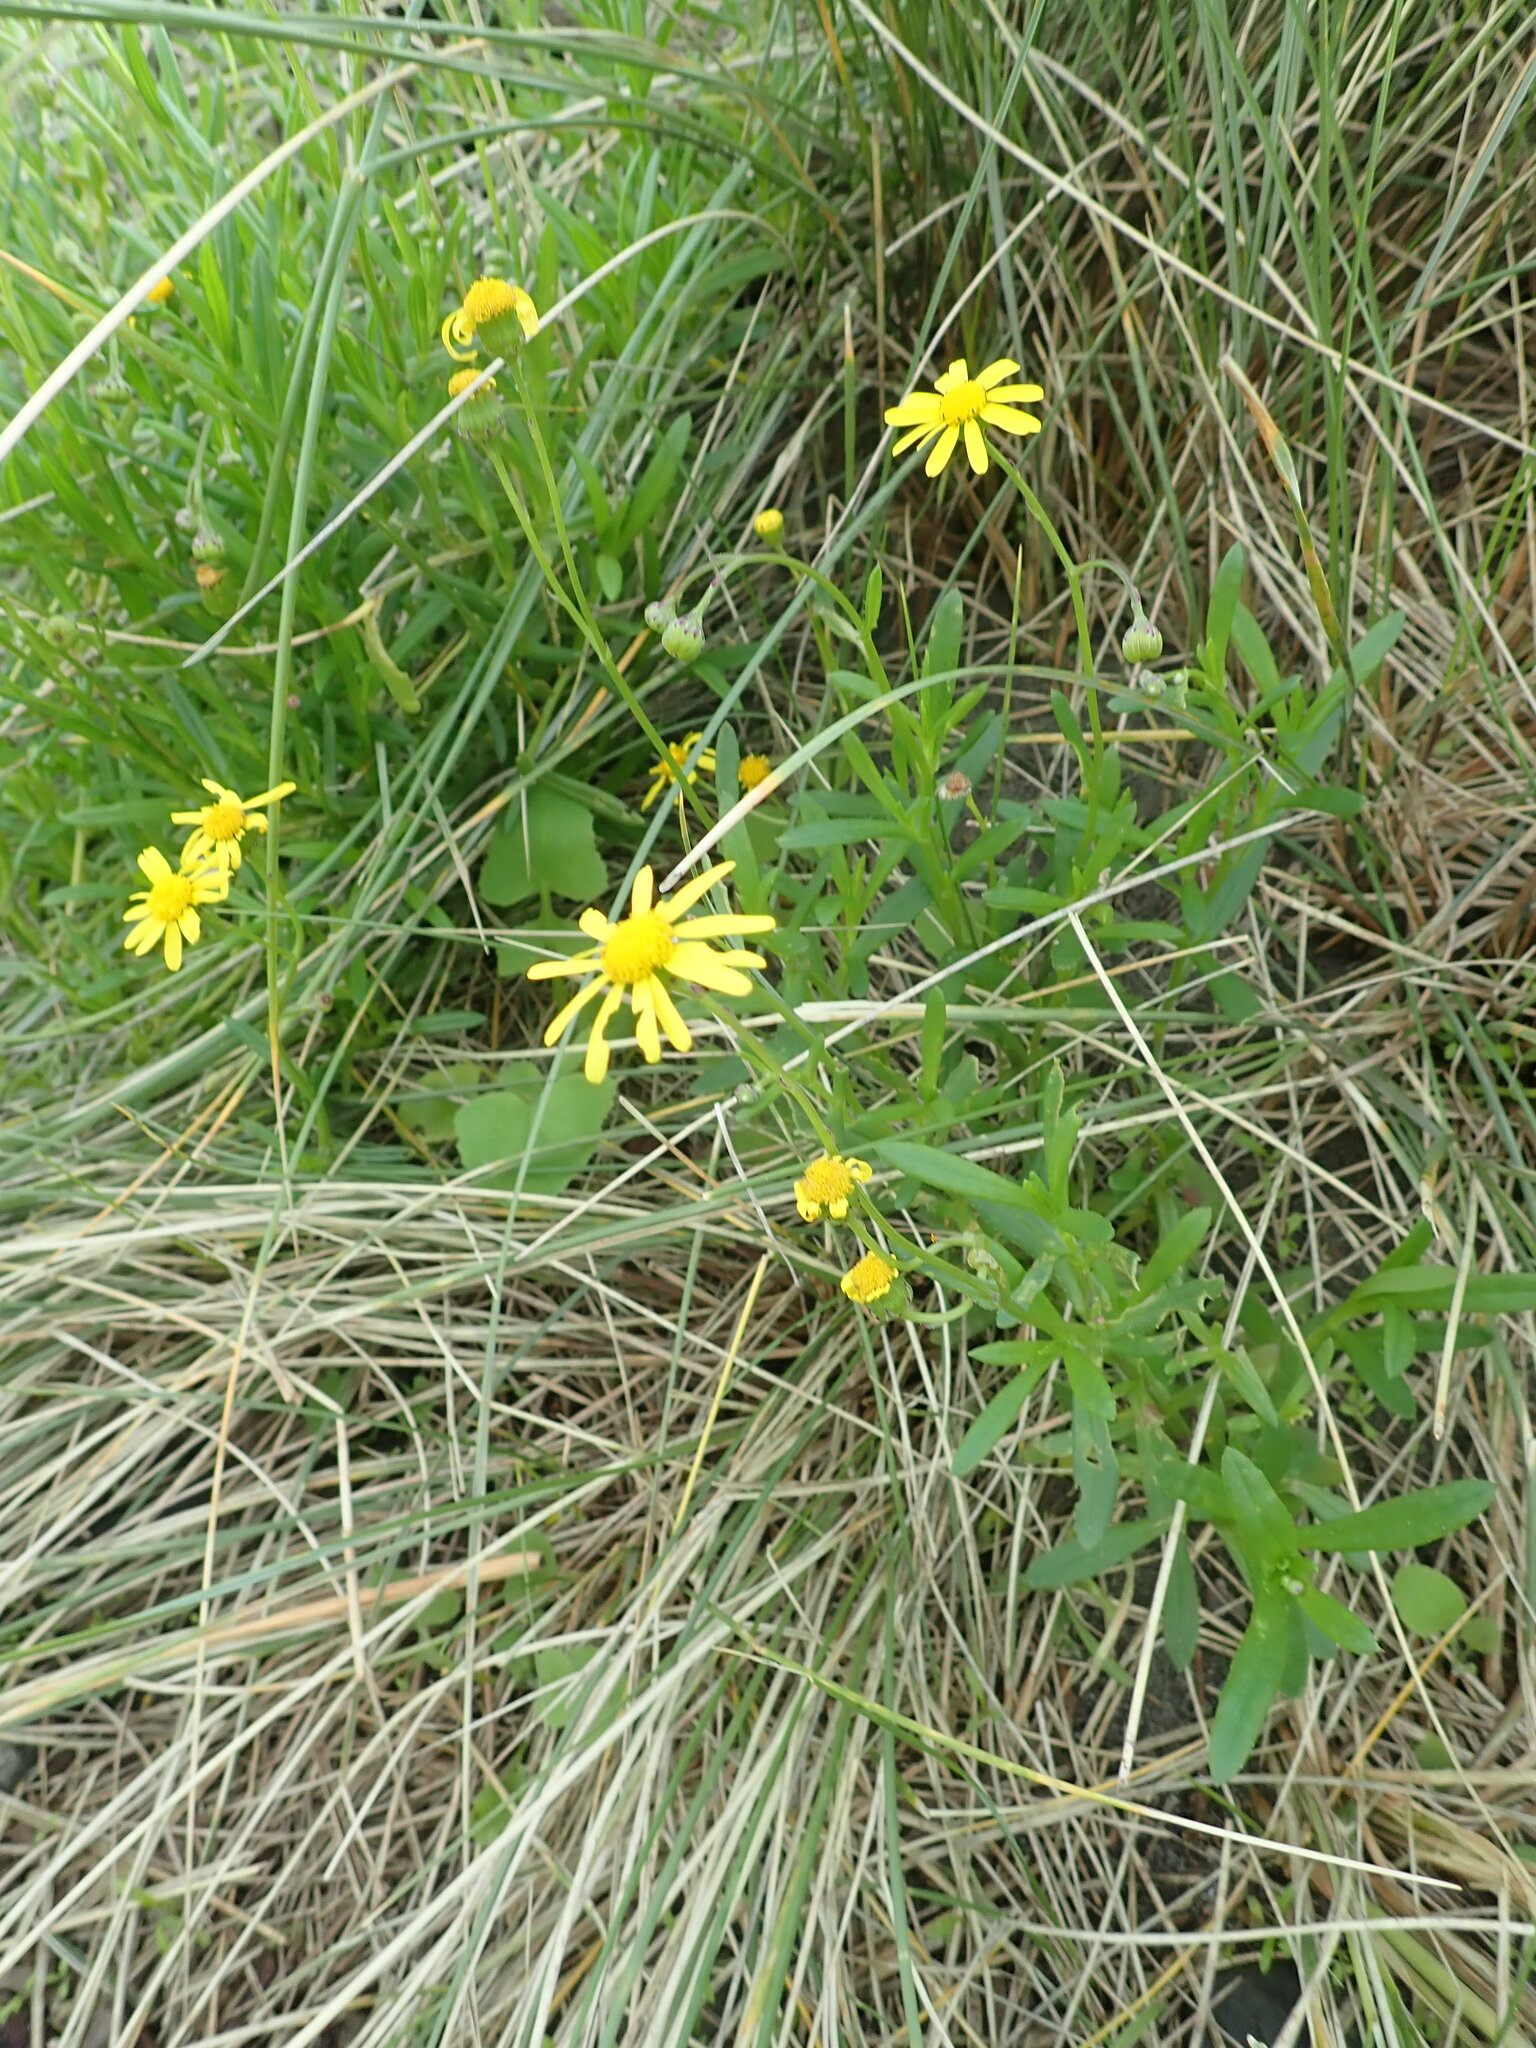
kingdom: Plantae
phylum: Tracheophyta
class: Magnoliopsida
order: Asterales
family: Asteraceae
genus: Senecio
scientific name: Senecio skirrhodon
